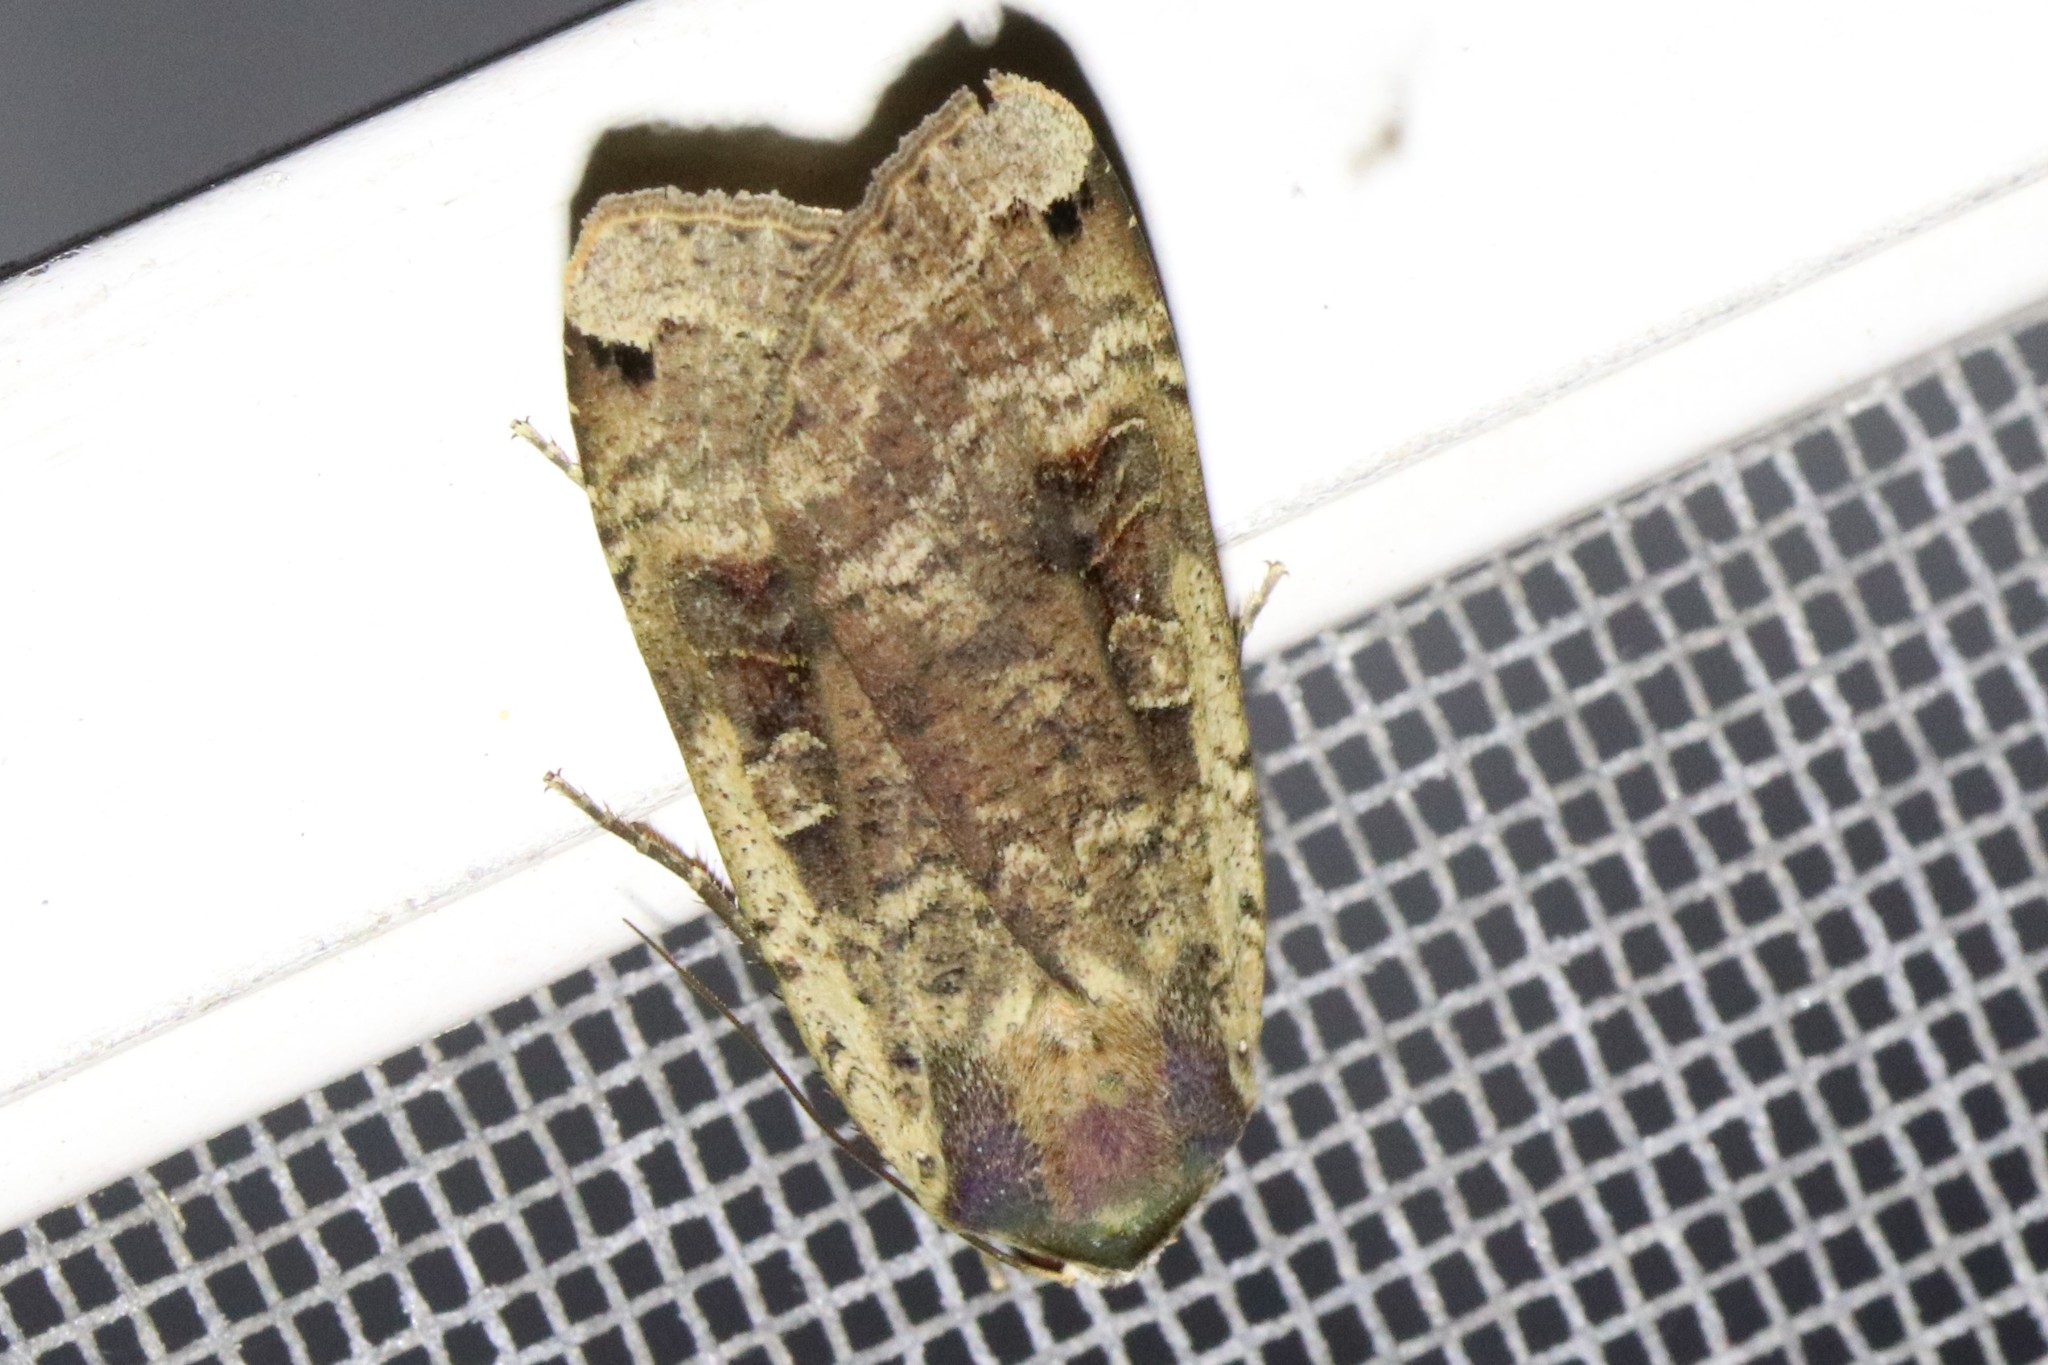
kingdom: Animalia
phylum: Arthropoda
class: Insecta
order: Lepidoptera
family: Noctuidae
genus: Noctua
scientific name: Noctua pronuba
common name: Large yellow underwing
